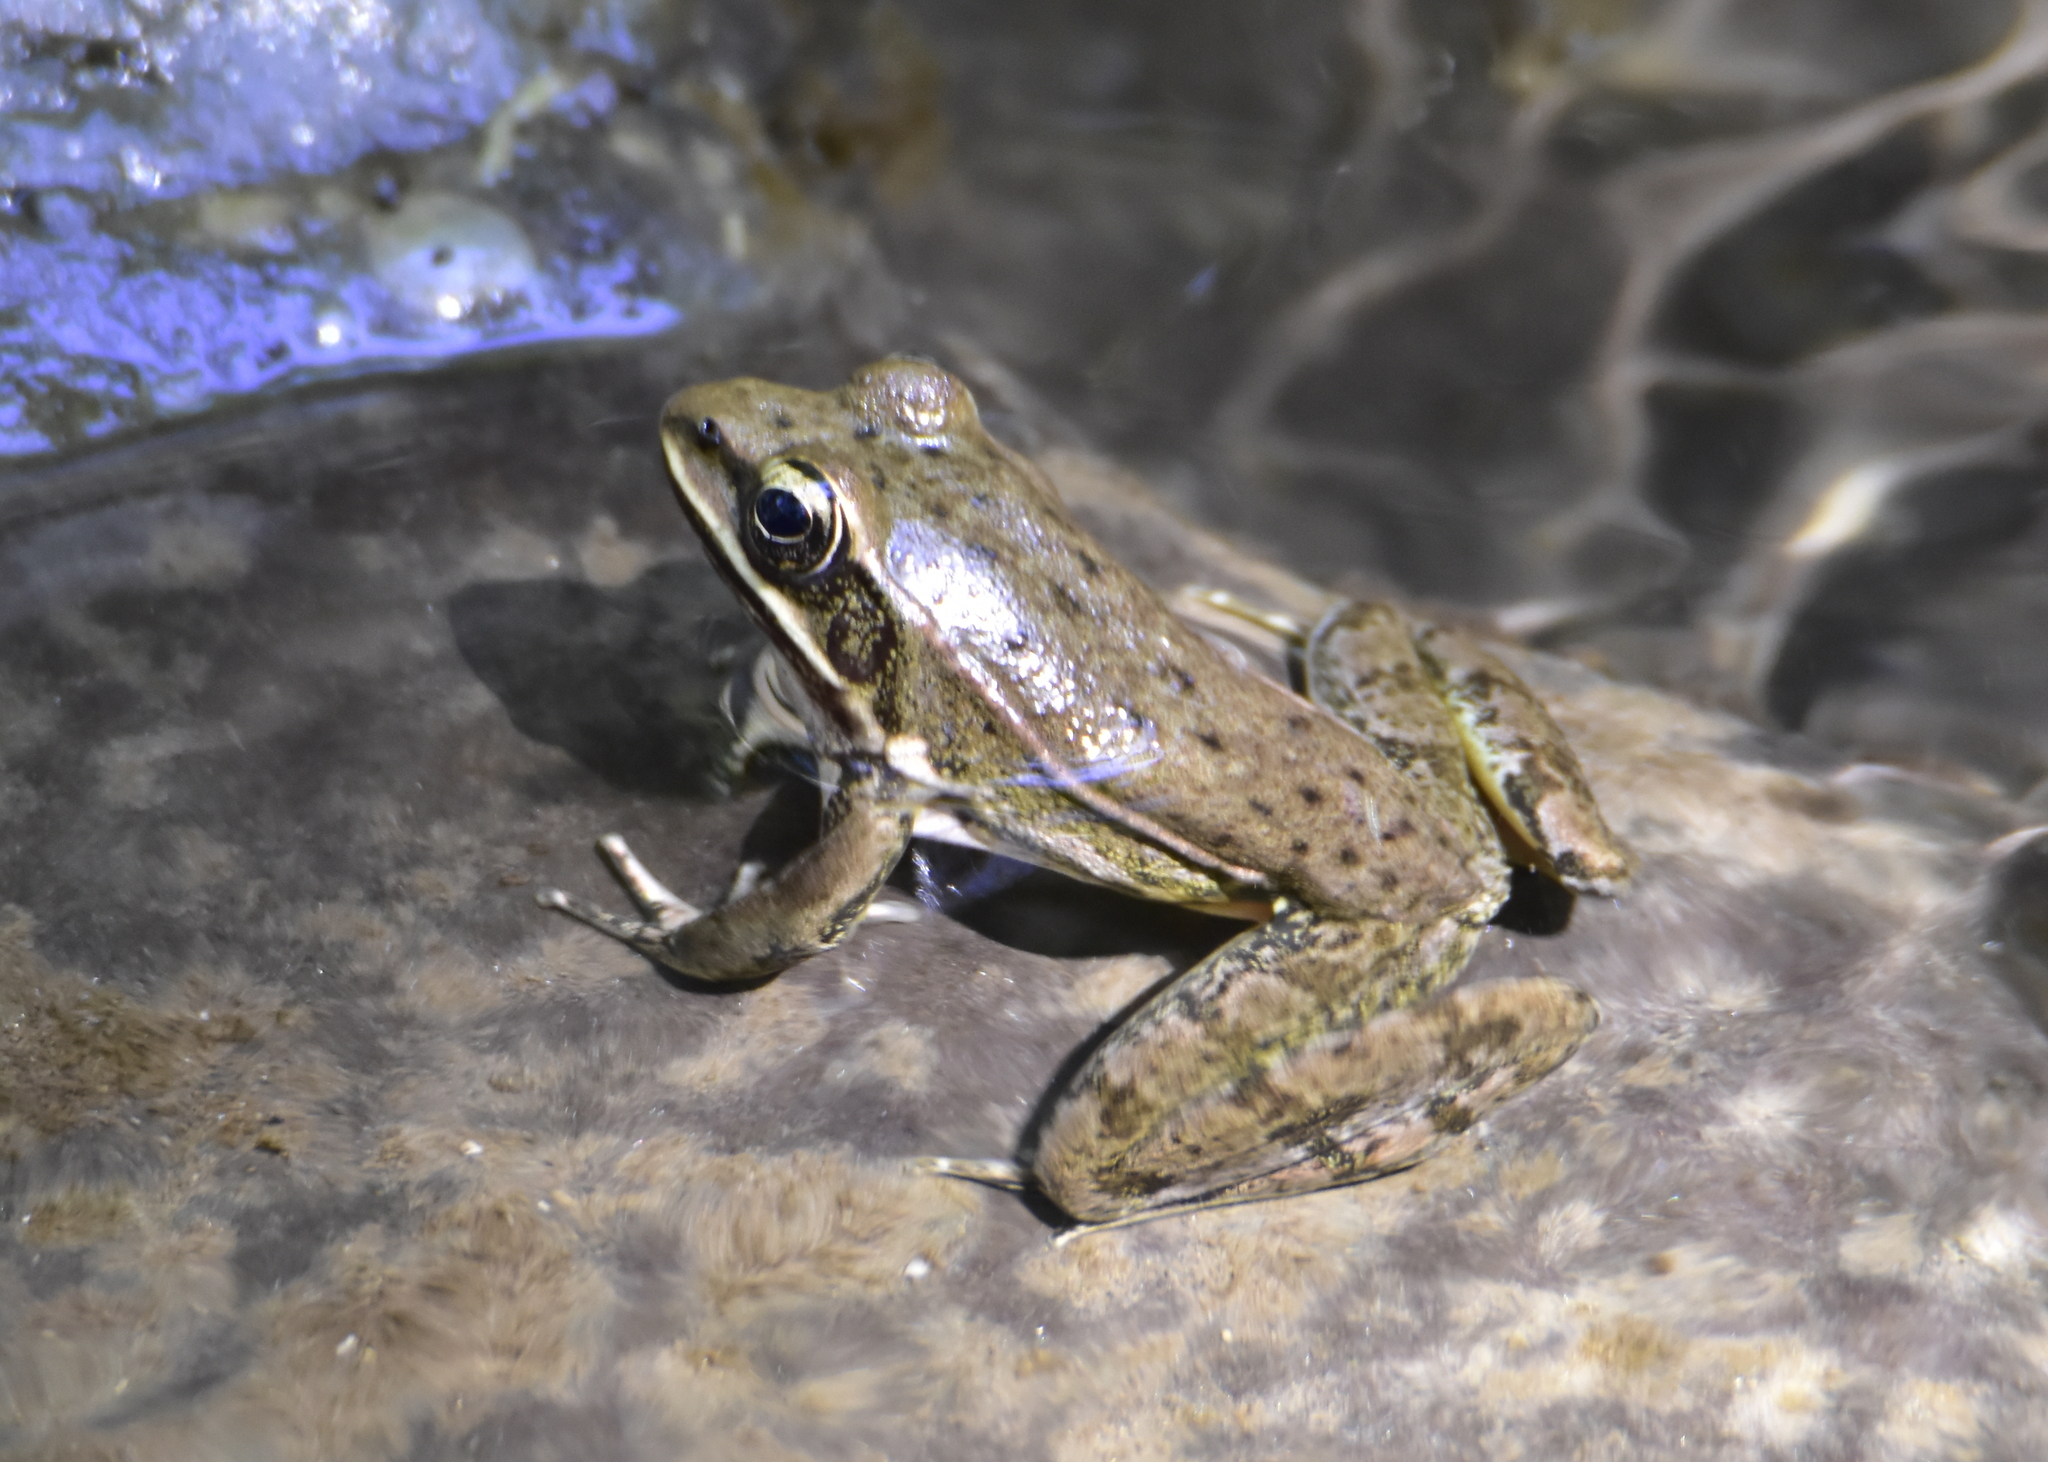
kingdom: Animalia
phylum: Chordata
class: Amphibia
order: Anura
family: Ranidae
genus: Lithobates
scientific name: Lithobates forreri
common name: Forrer's grass frog
